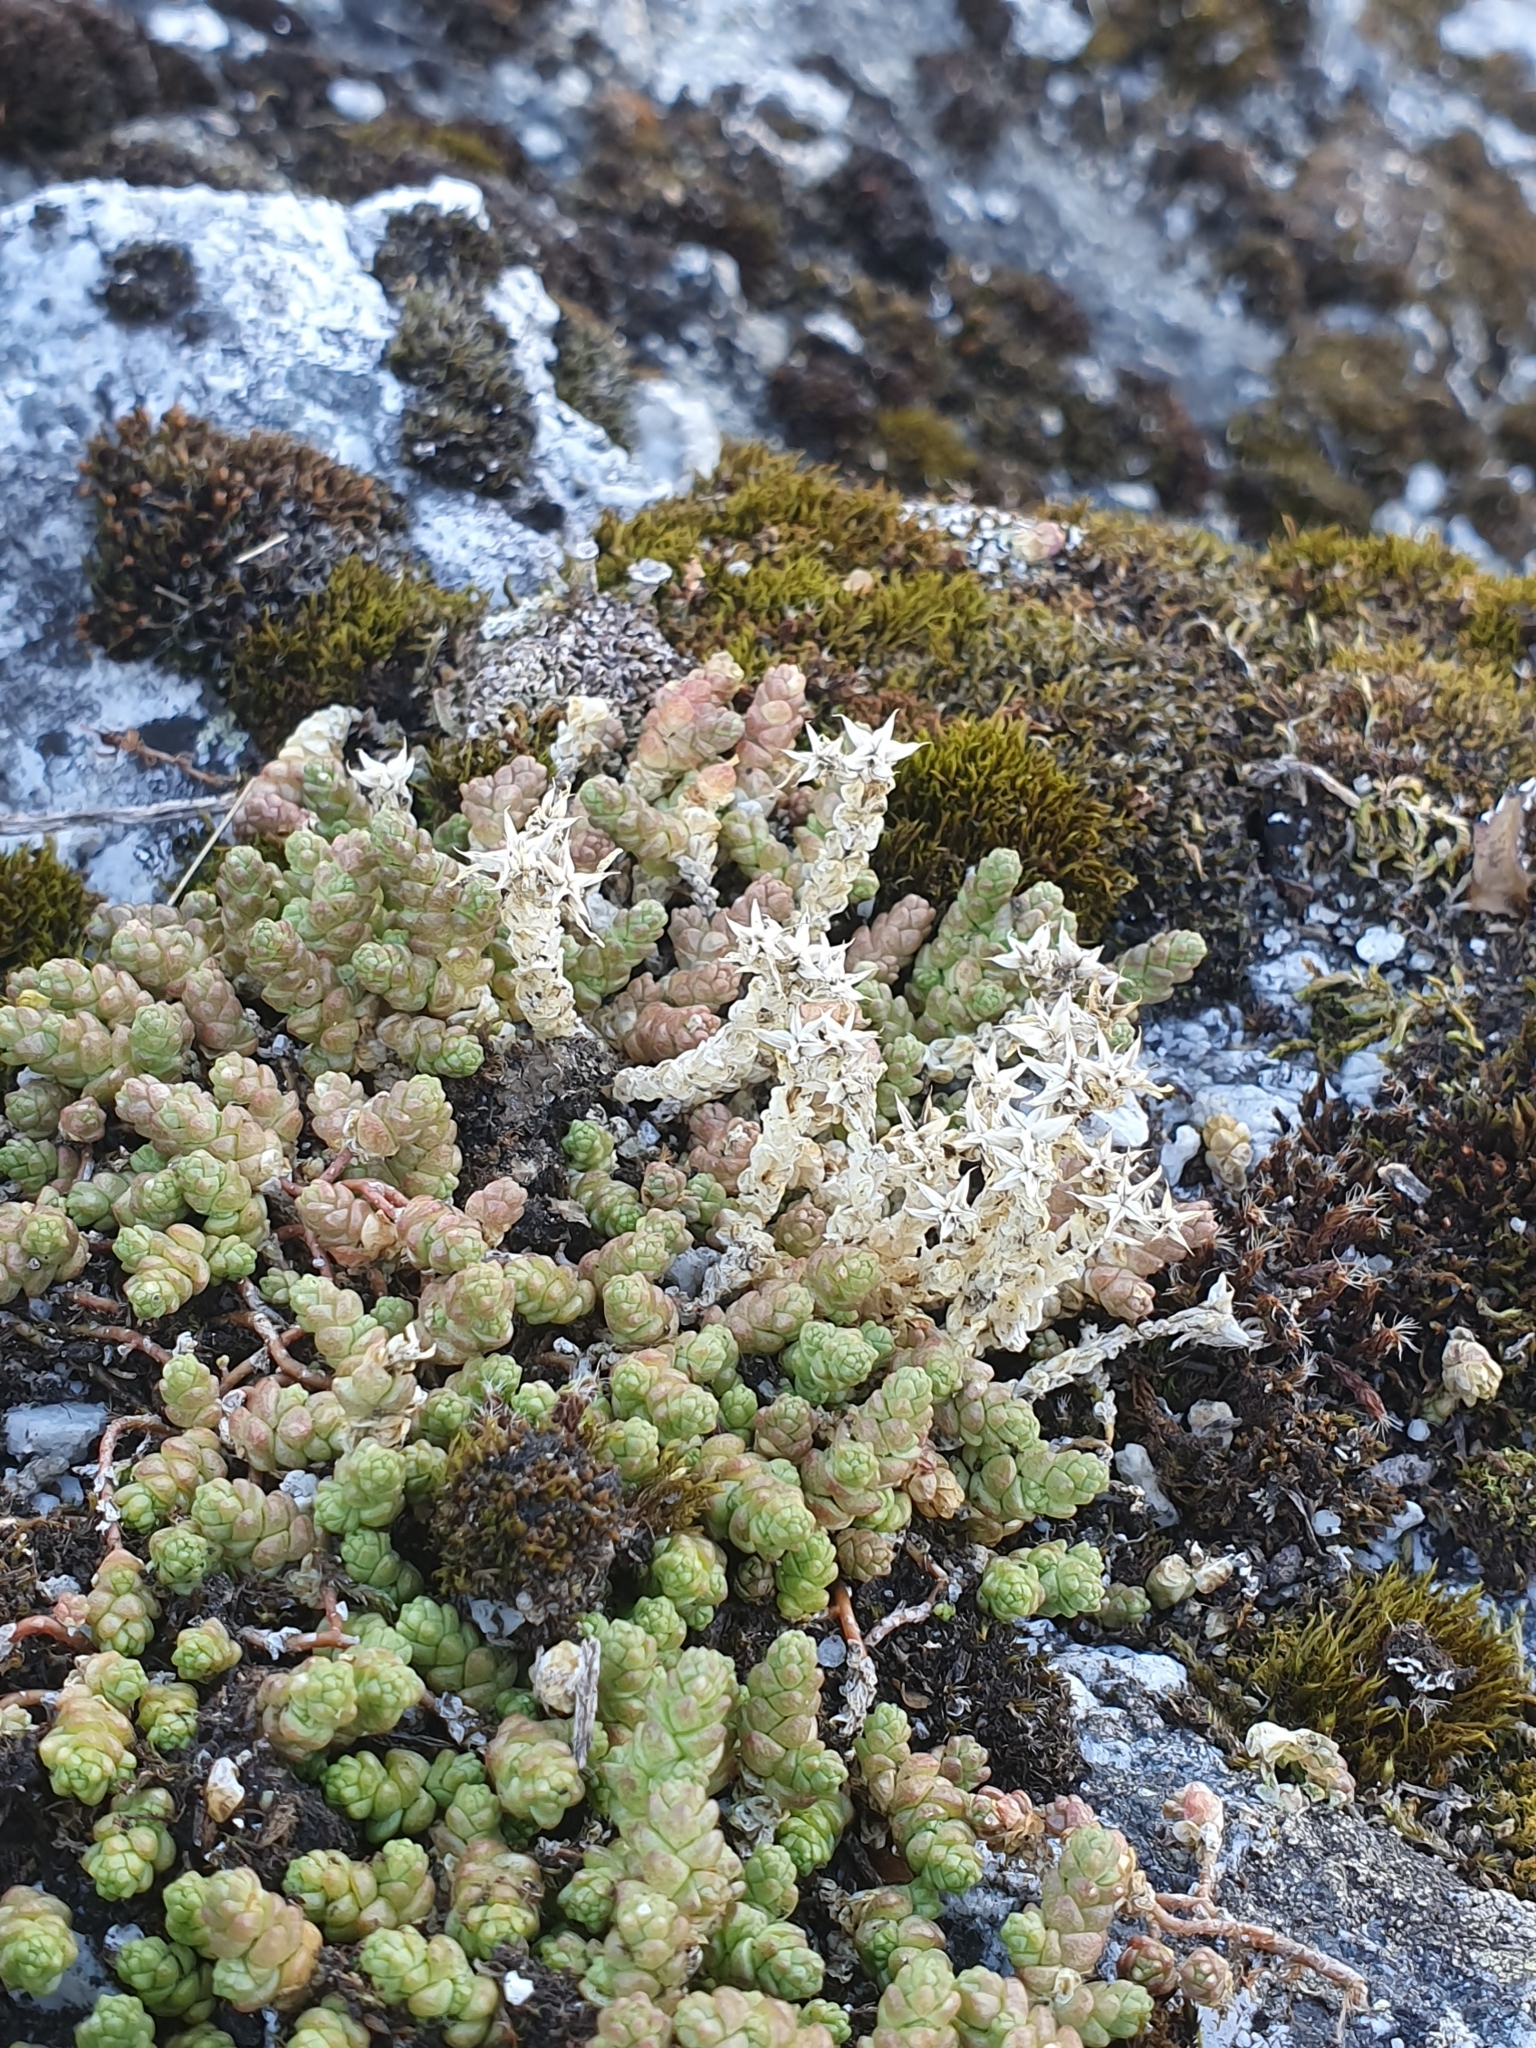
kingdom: Plantae
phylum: Tracheophyta
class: Magnoliopsida
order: Saxifragales
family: Crassulaceae
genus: Sedum
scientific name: Sedum acre
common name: Biting stonecrop
